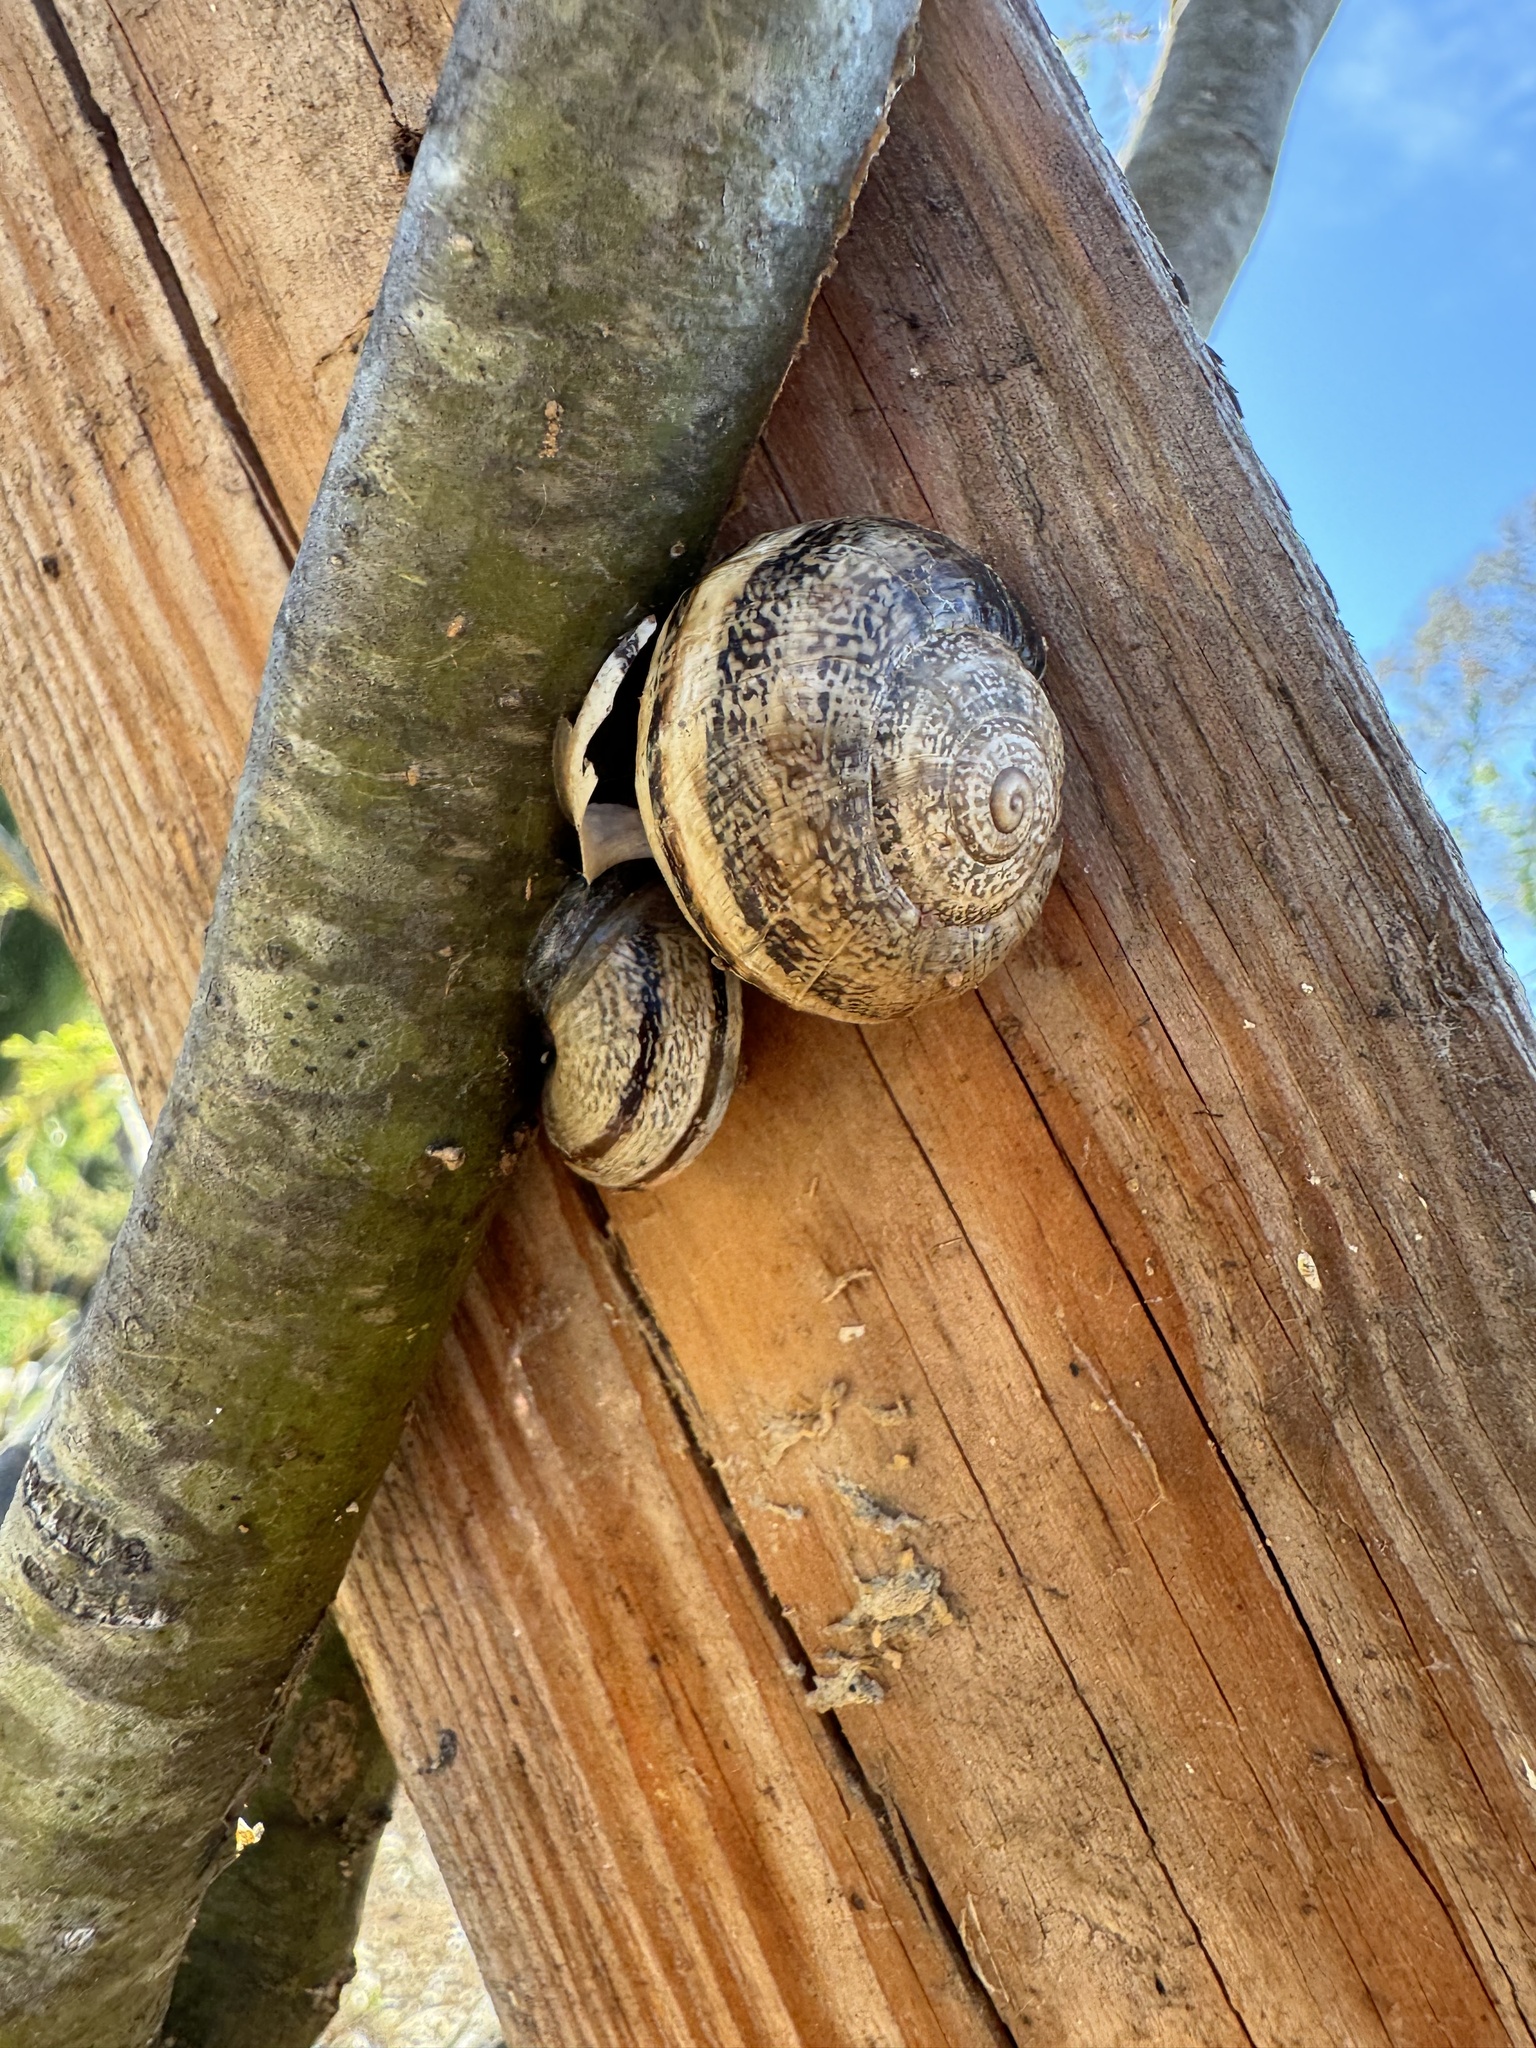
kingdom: Animalia
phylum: Mollusca
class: Gastropoda
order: Stylommatophora
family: Helicidae
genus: Otala
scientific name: Otala lactea
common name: Milk snail
